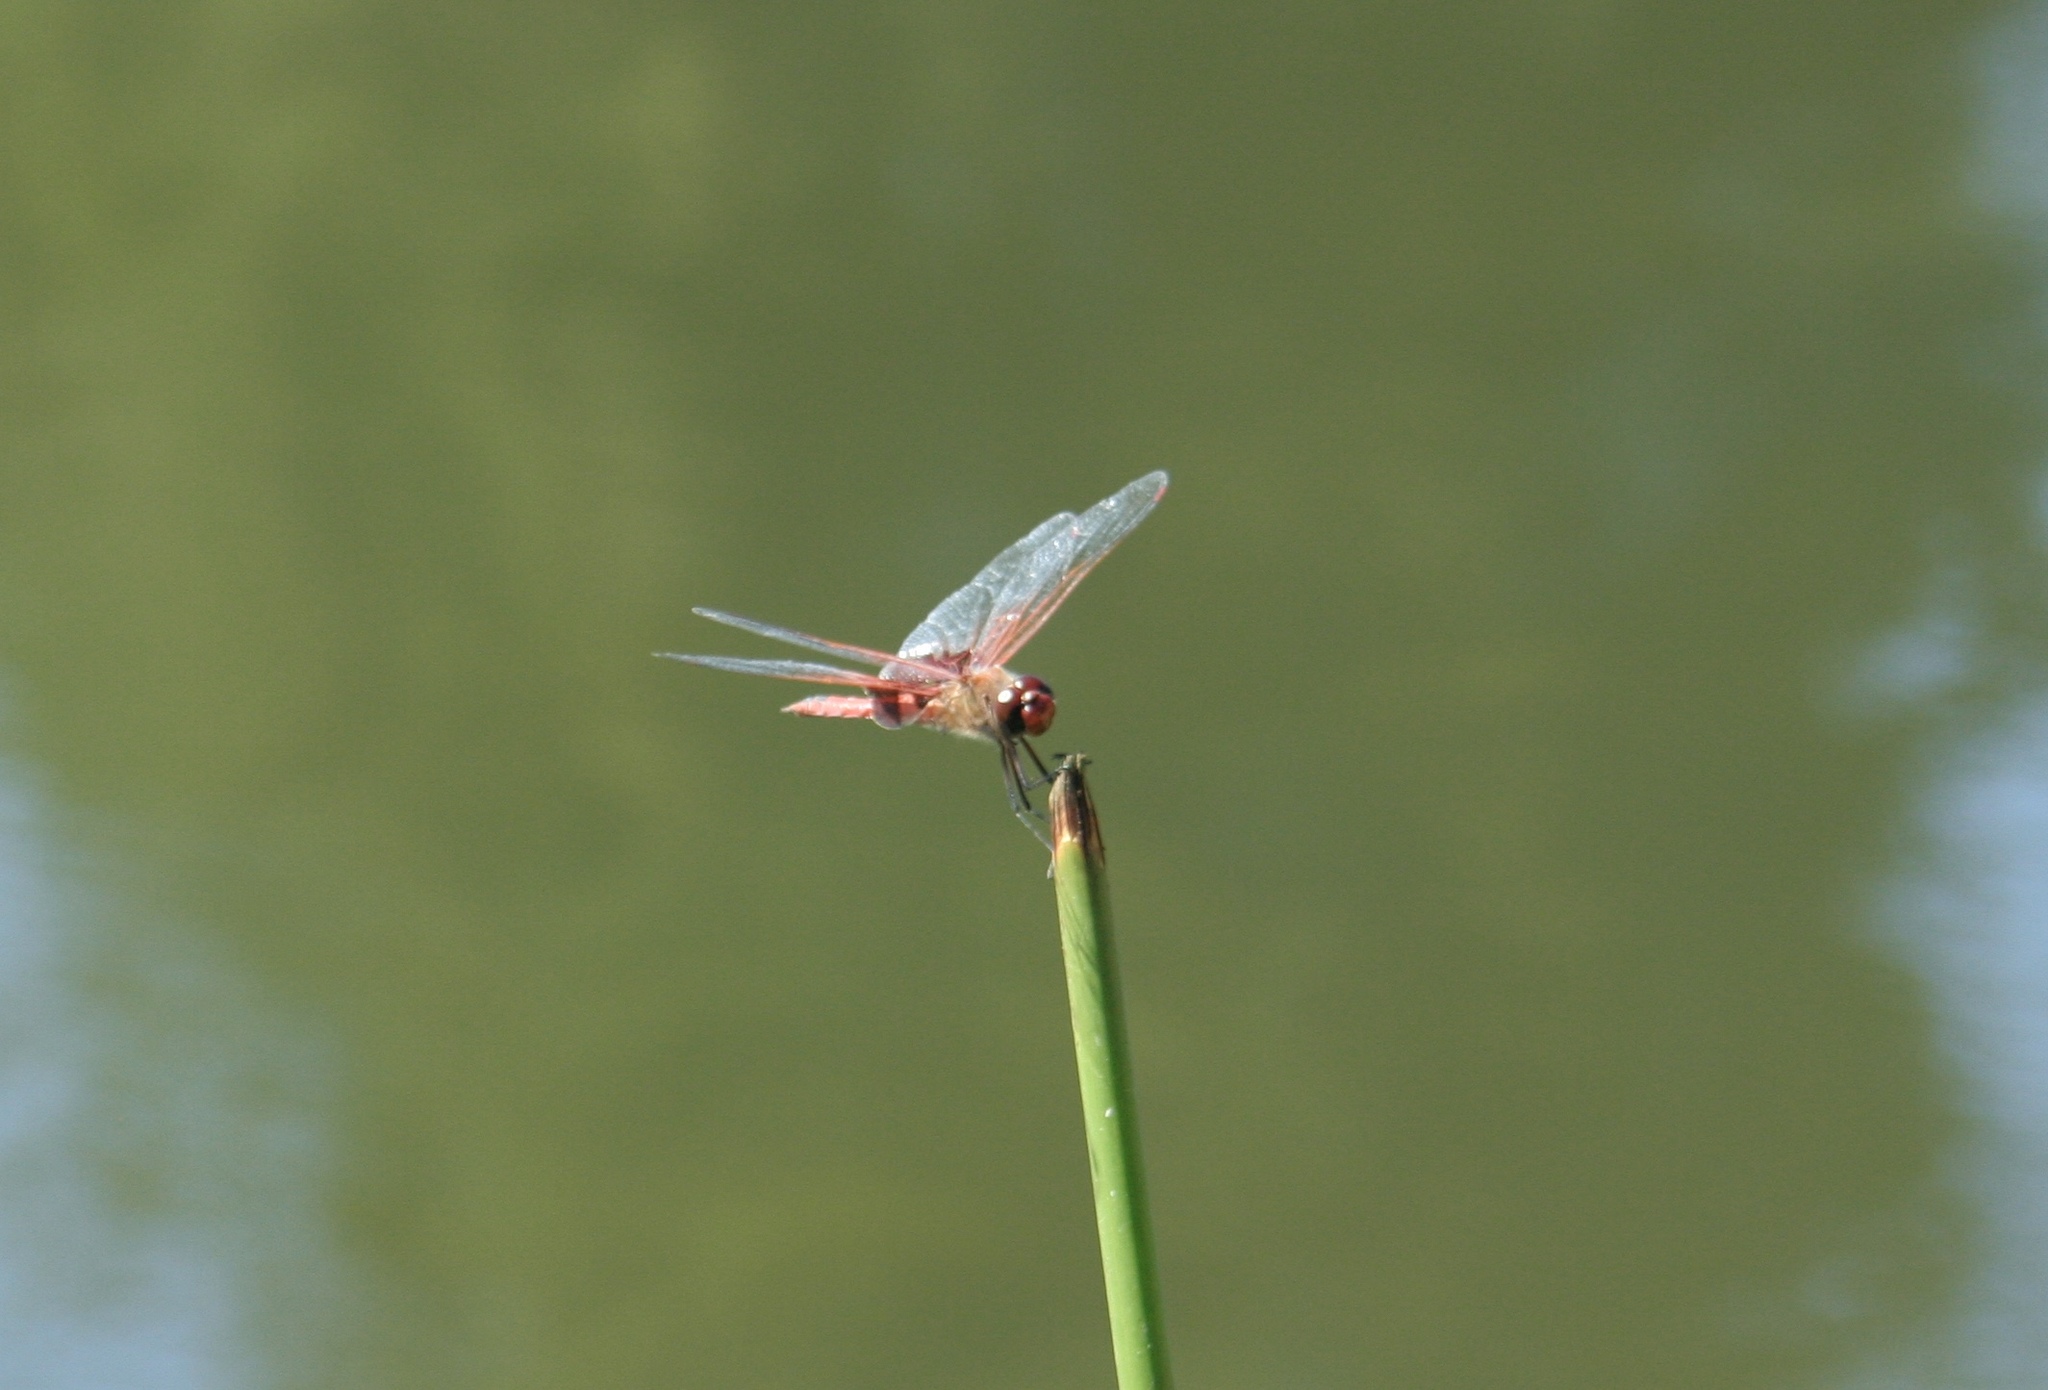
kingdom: Animalia
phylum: Arthropoda
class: Insecta
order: Odonata
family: Libellulidae
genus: Tramea
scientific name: Tramea onusta
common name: Red saddlebags
